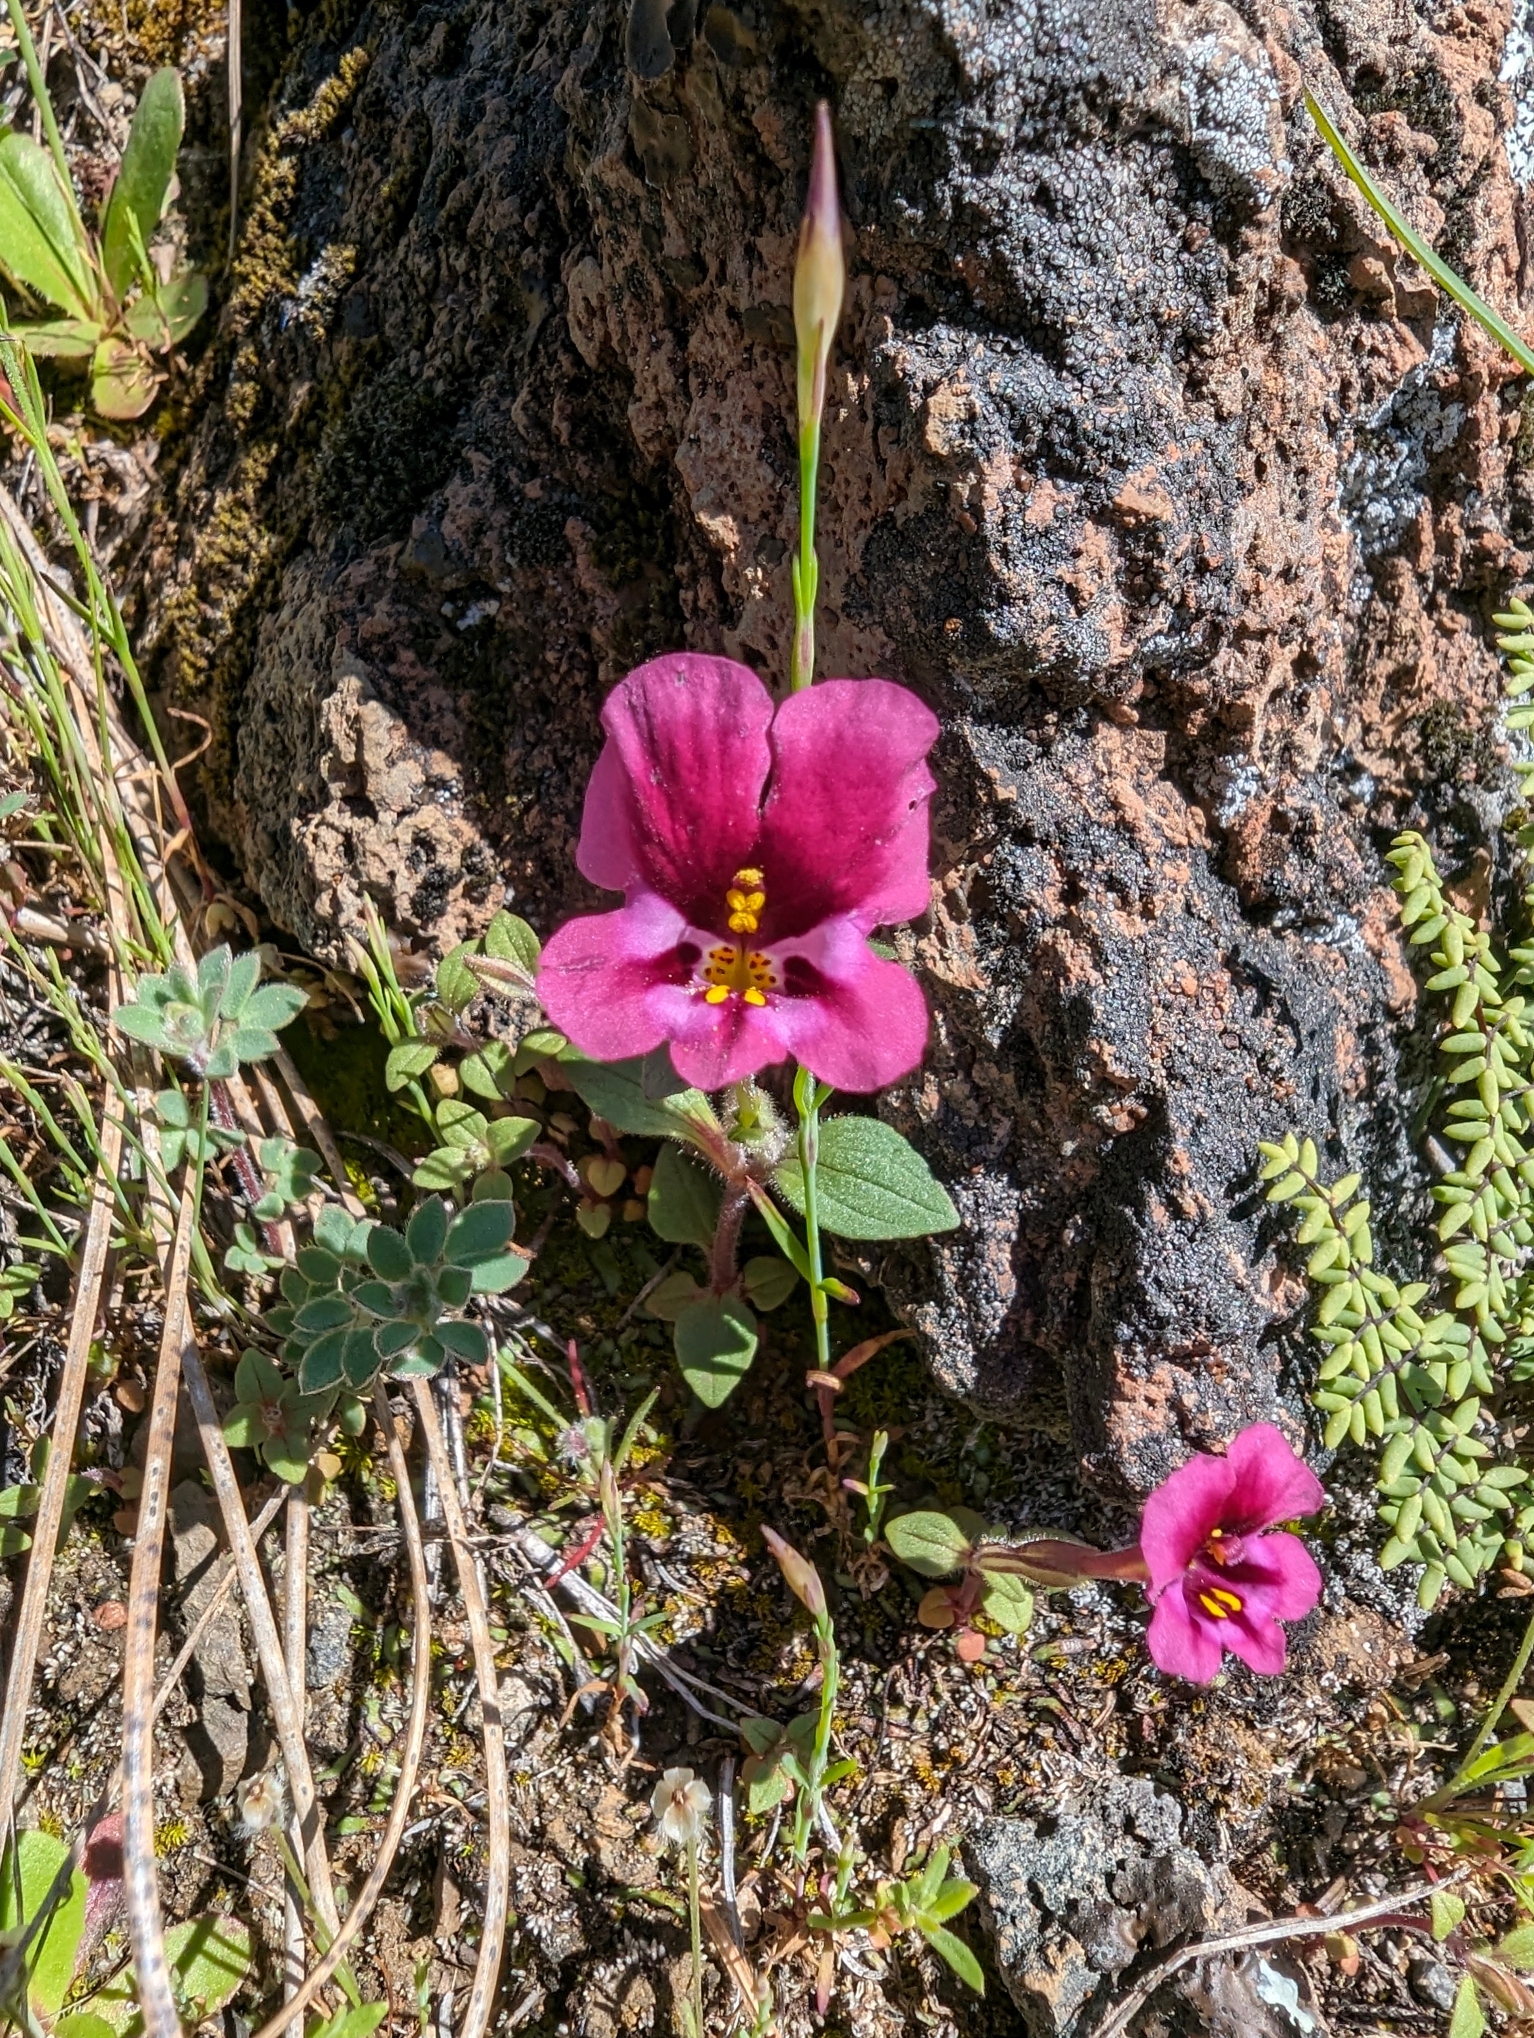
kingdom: Plantae
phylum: Tracheophyta
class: Magnoliopsida
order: Lamiales
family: Phrymaceae
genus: Diplacus
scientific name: Diplacus kelloggii
